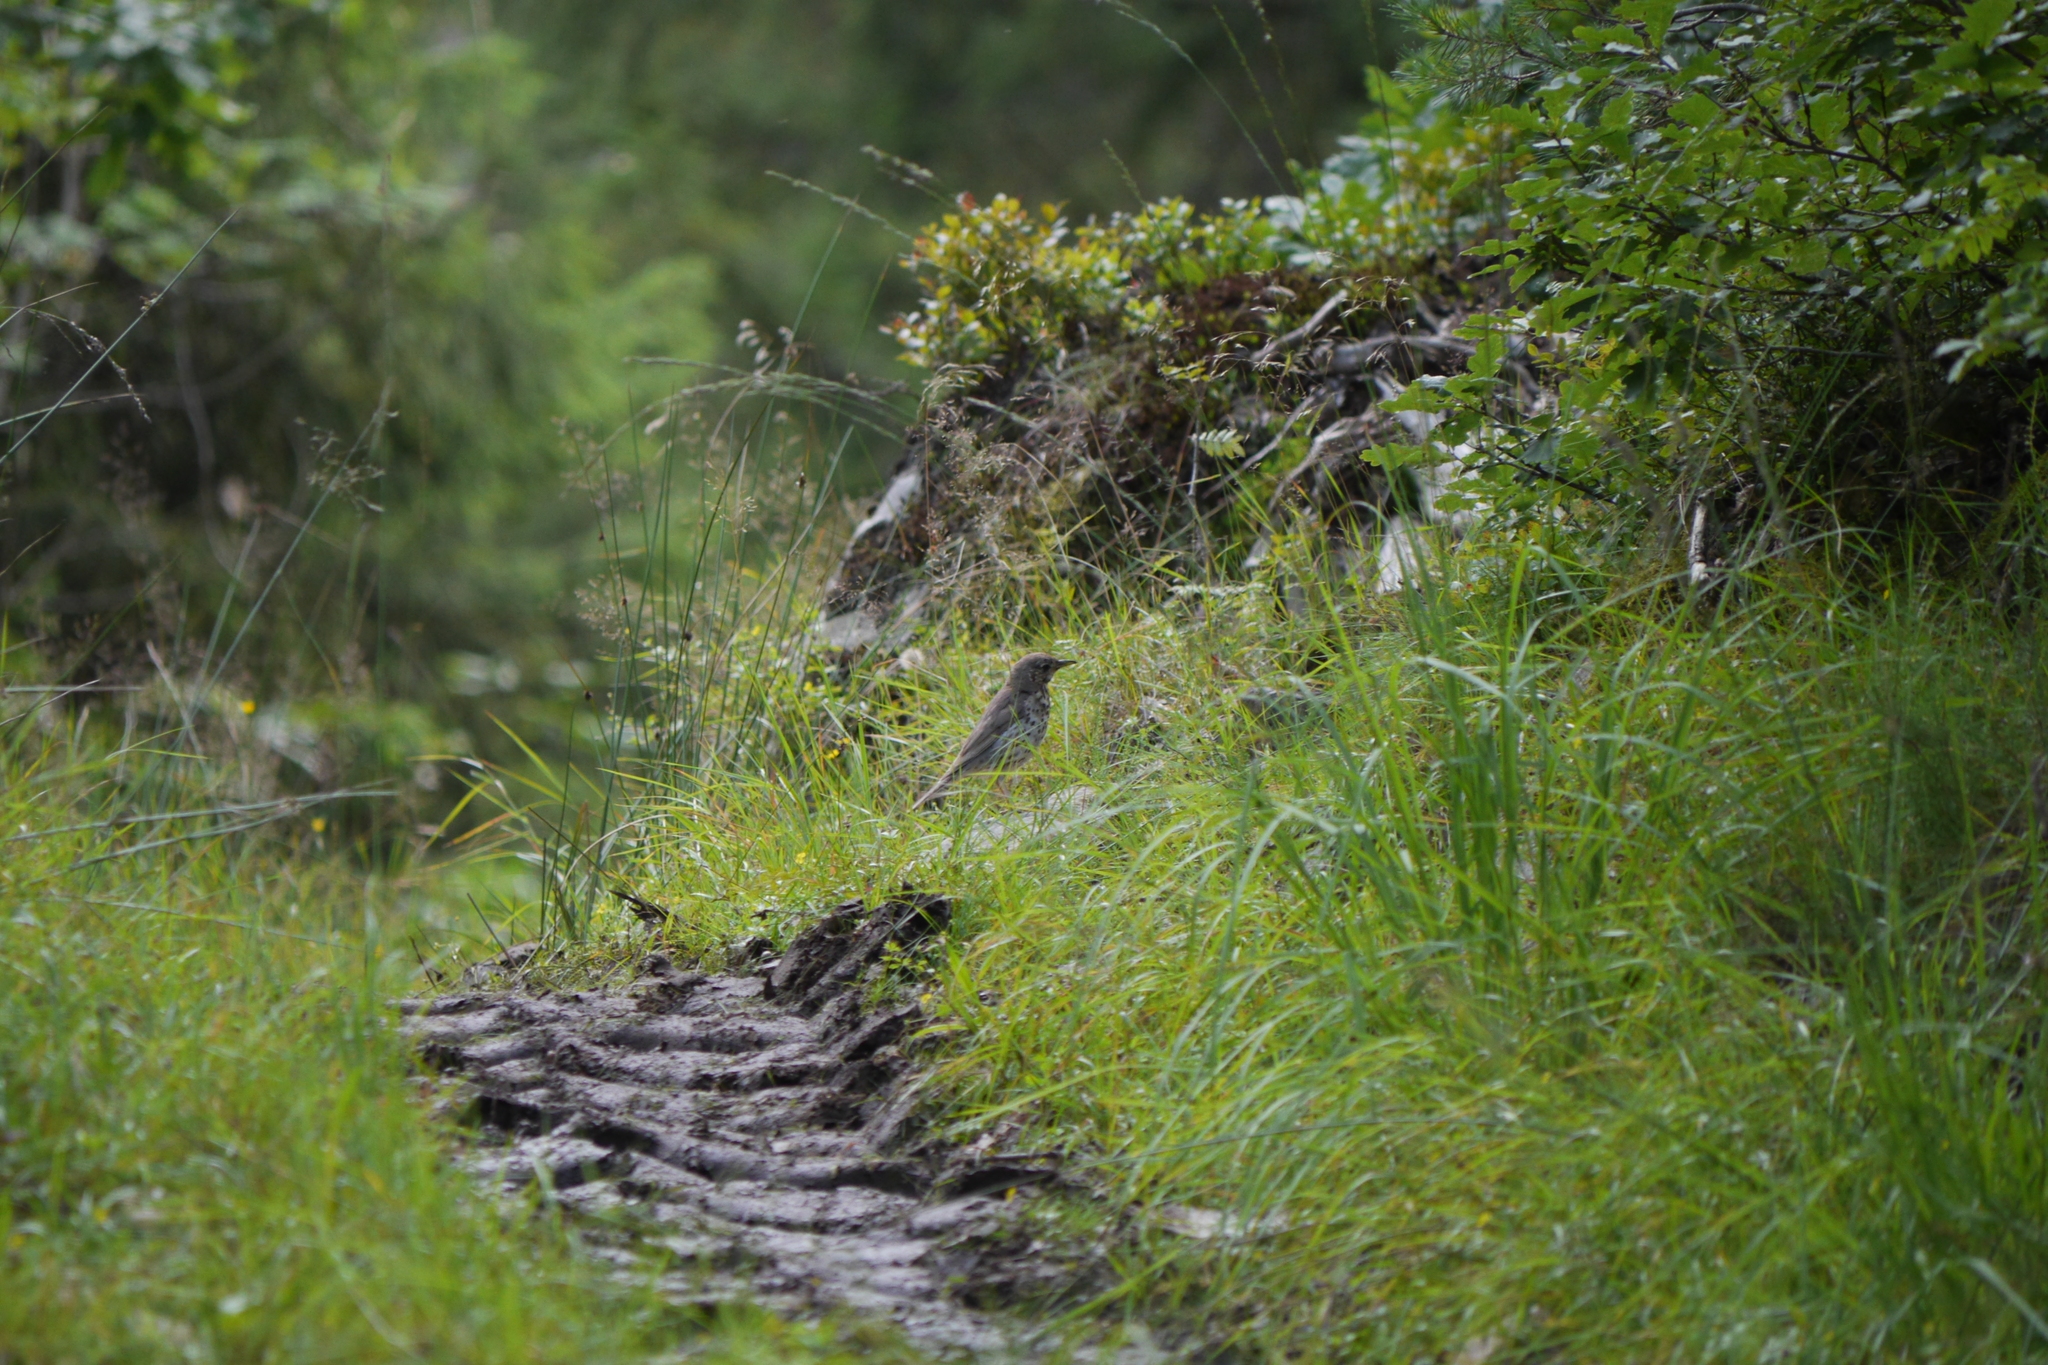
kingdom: Animalia
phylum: Chordata
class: Aves
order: Passeriformes
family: Turdidae
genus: Turdus
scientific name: Turdus philomelos
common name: Song thrush
